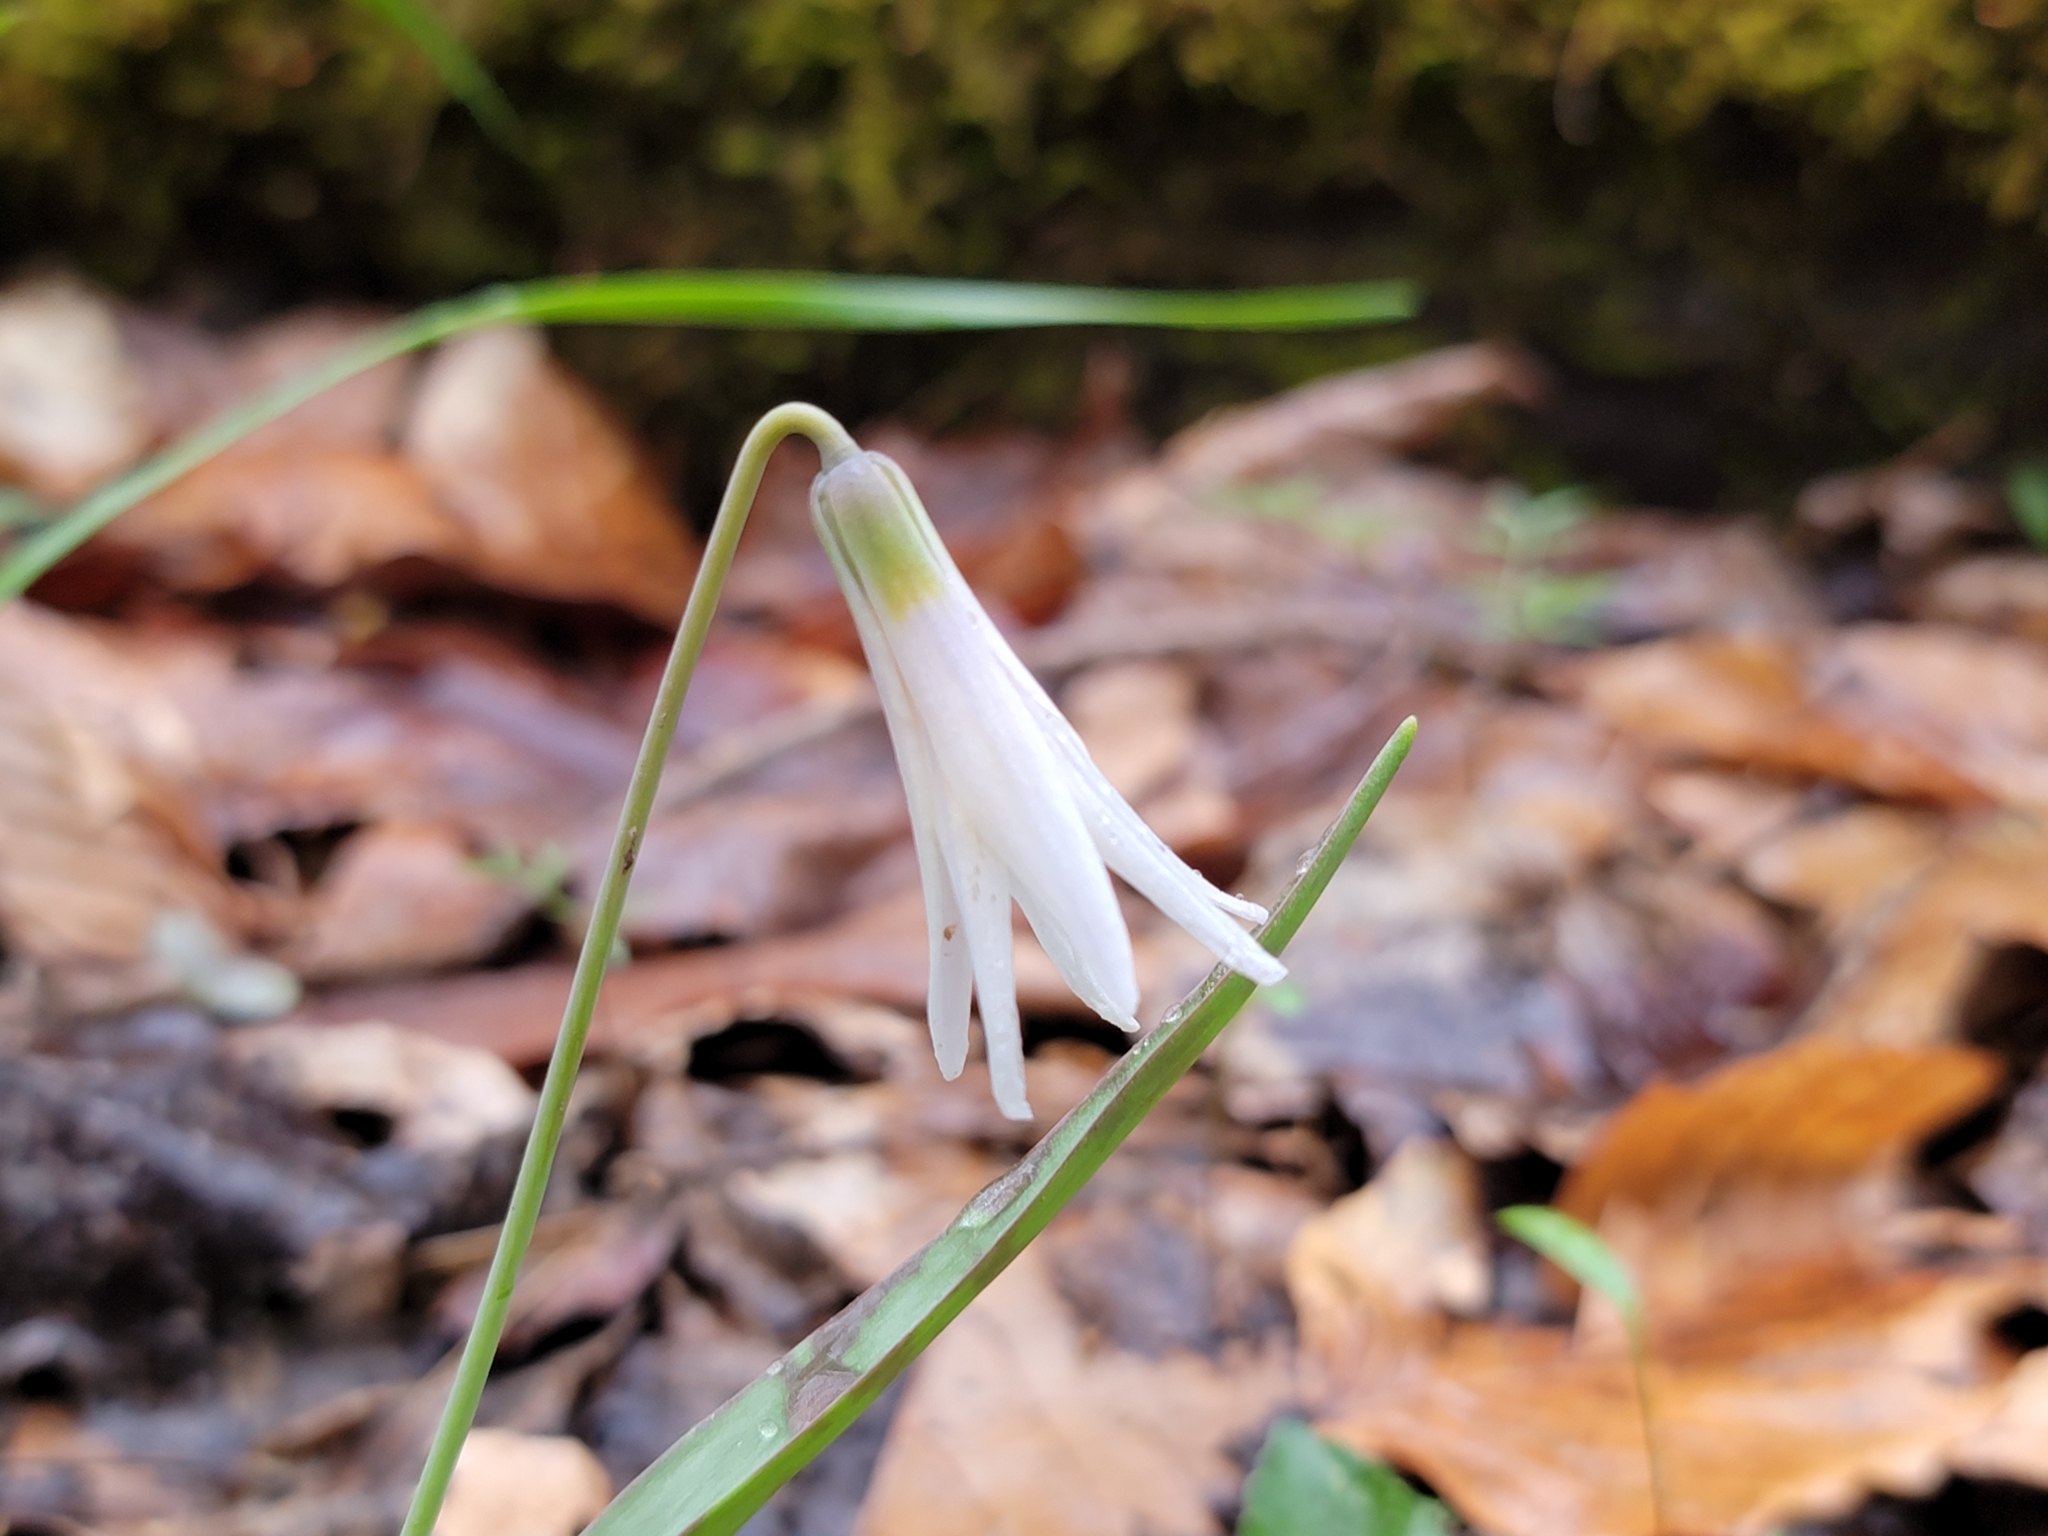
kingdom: Plantae
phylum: Tracheophyta
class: Liliopsida
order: Liliales
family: Liliaceae
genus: Erythronium
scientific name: Erythronium albidum
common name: White trout-lily
